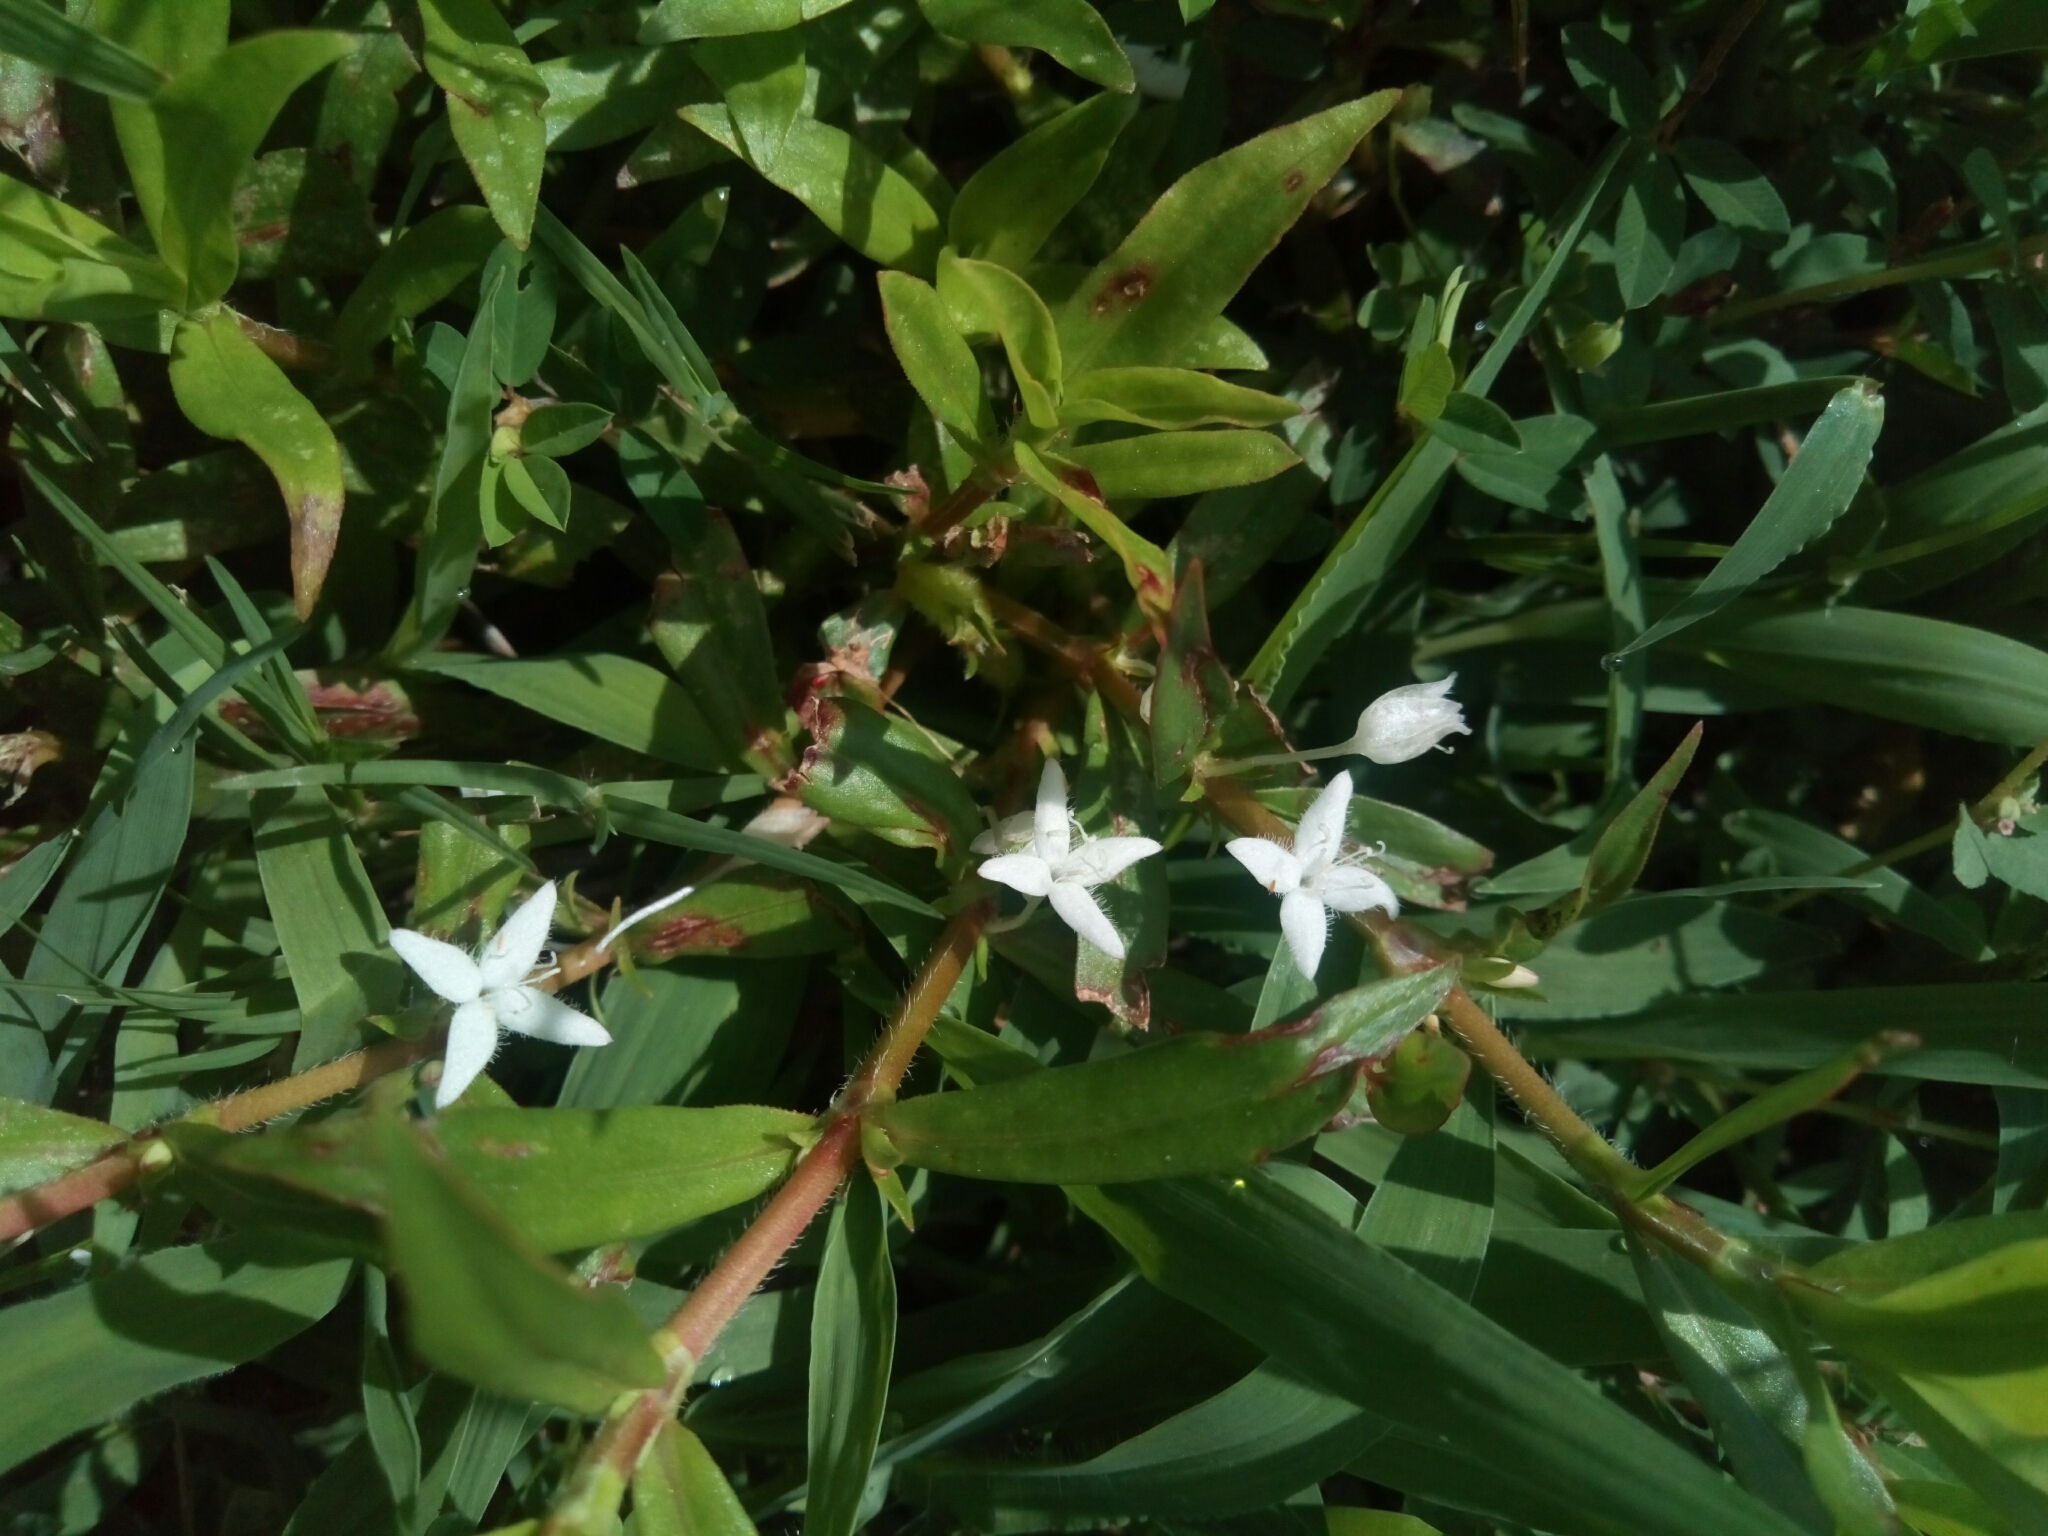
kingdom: Plantae
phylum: Tracheophyta
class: Magnoliopsida
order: Gentianales
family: Rubiaceae
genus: Diodia
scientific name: Diodia virginiana
